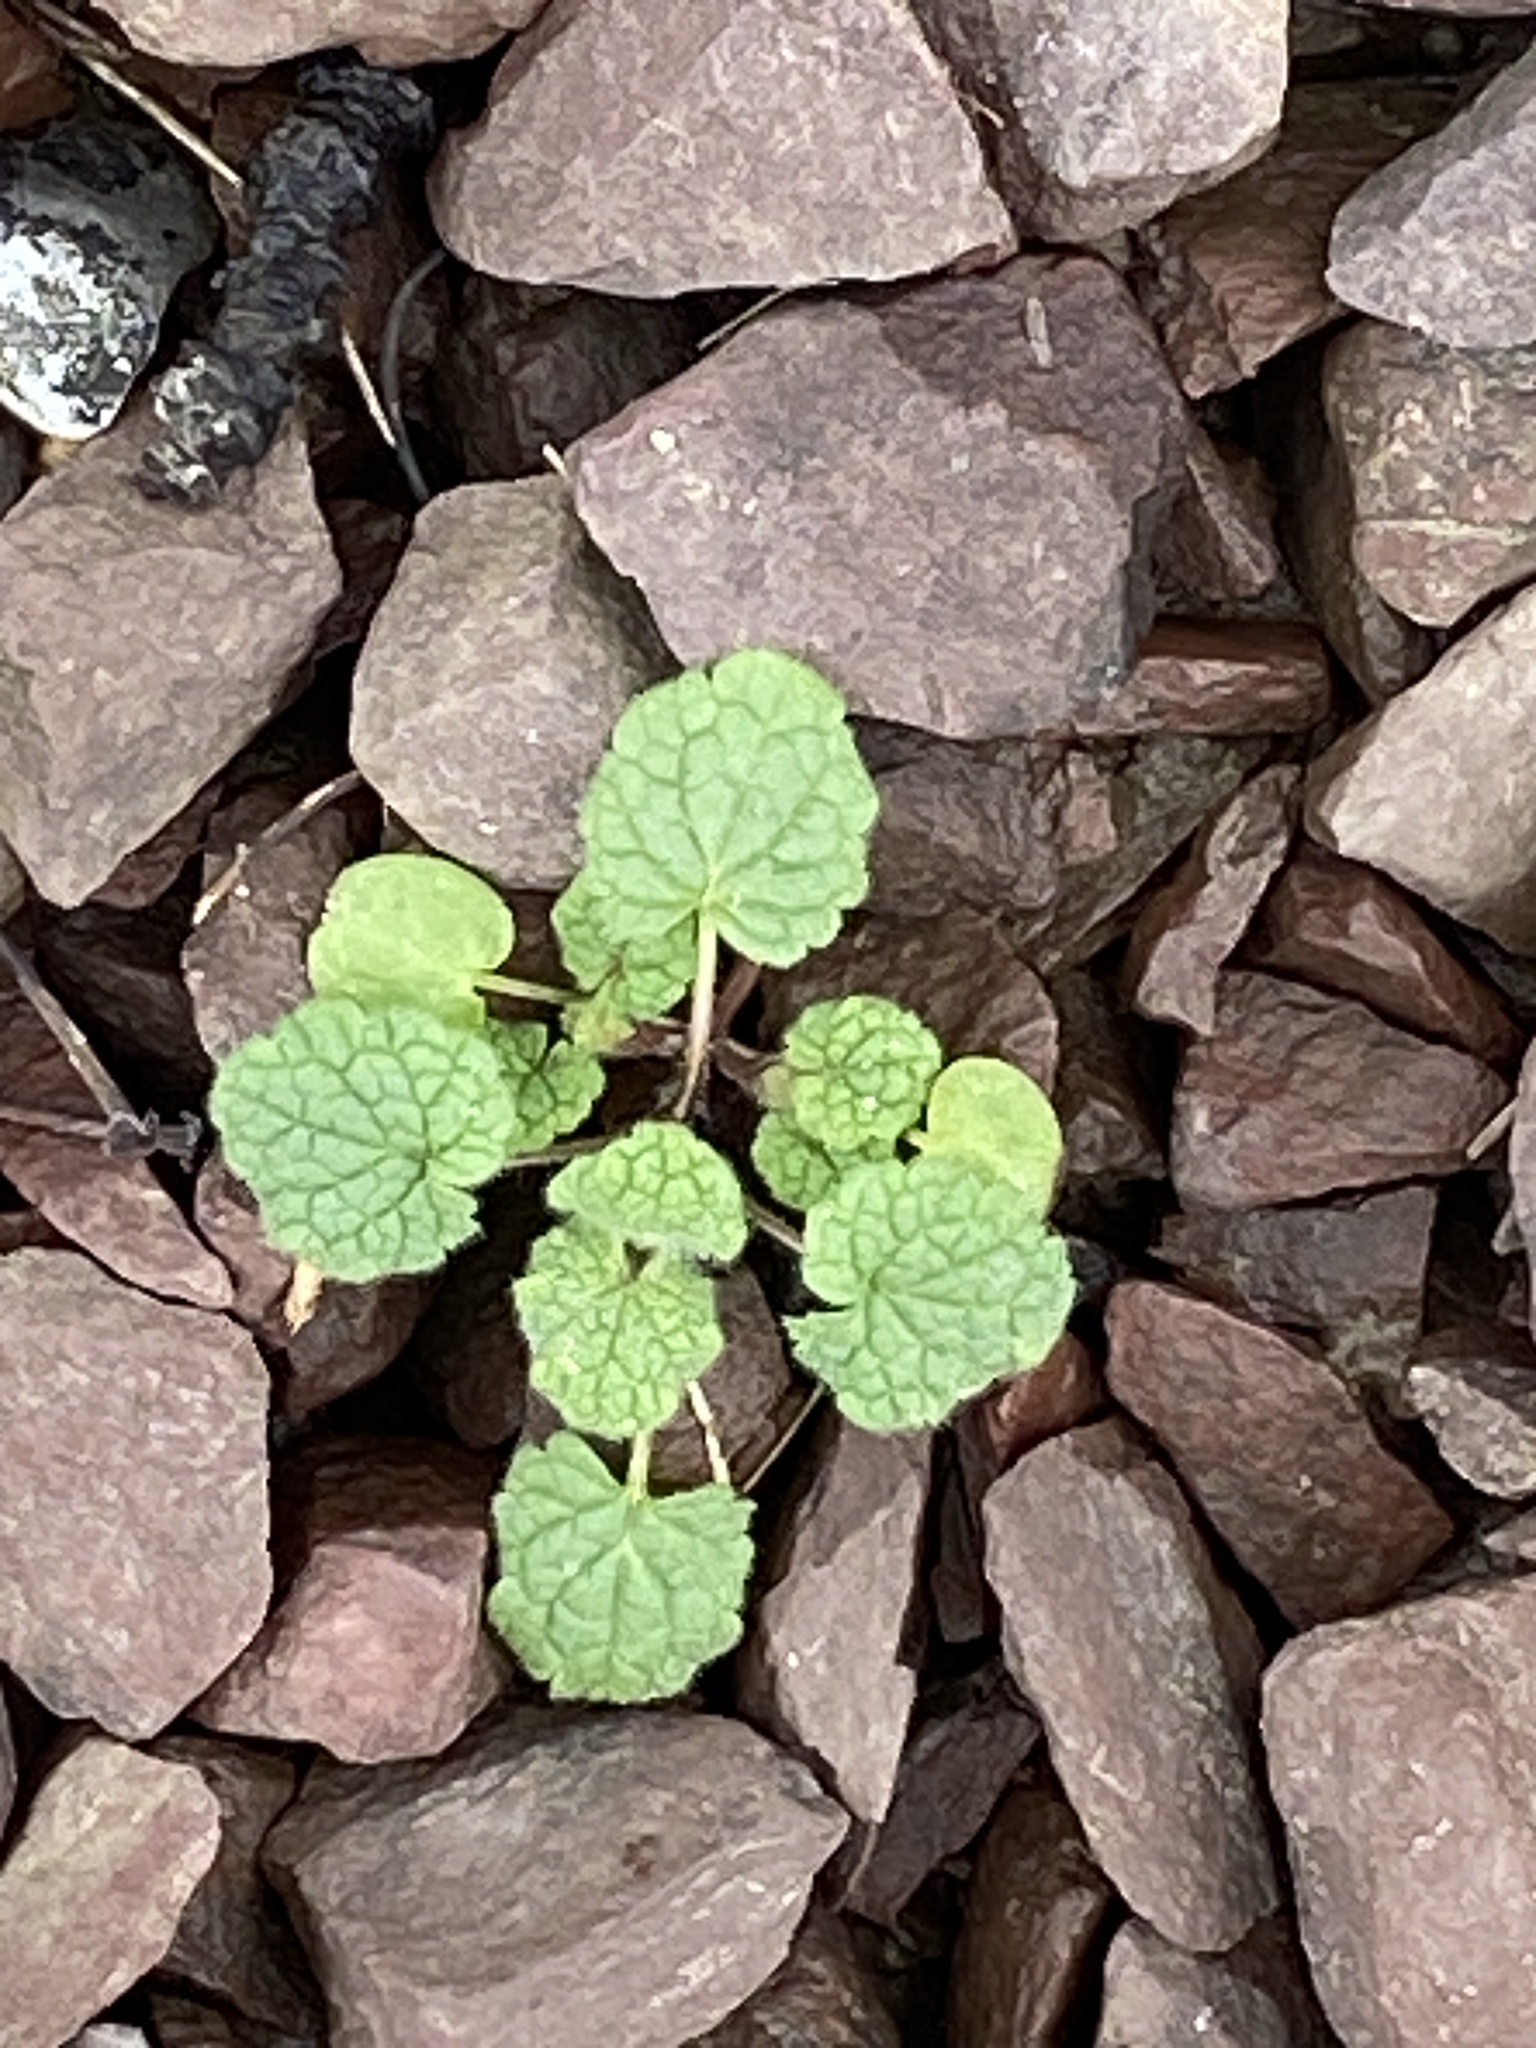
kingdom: Plantae
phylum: Tracheophyta
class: Magnoliopsida
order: Lamiales
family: Lamiaceae
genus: Lamium
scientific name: Lamium purpureum
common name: Red dead-nettle
